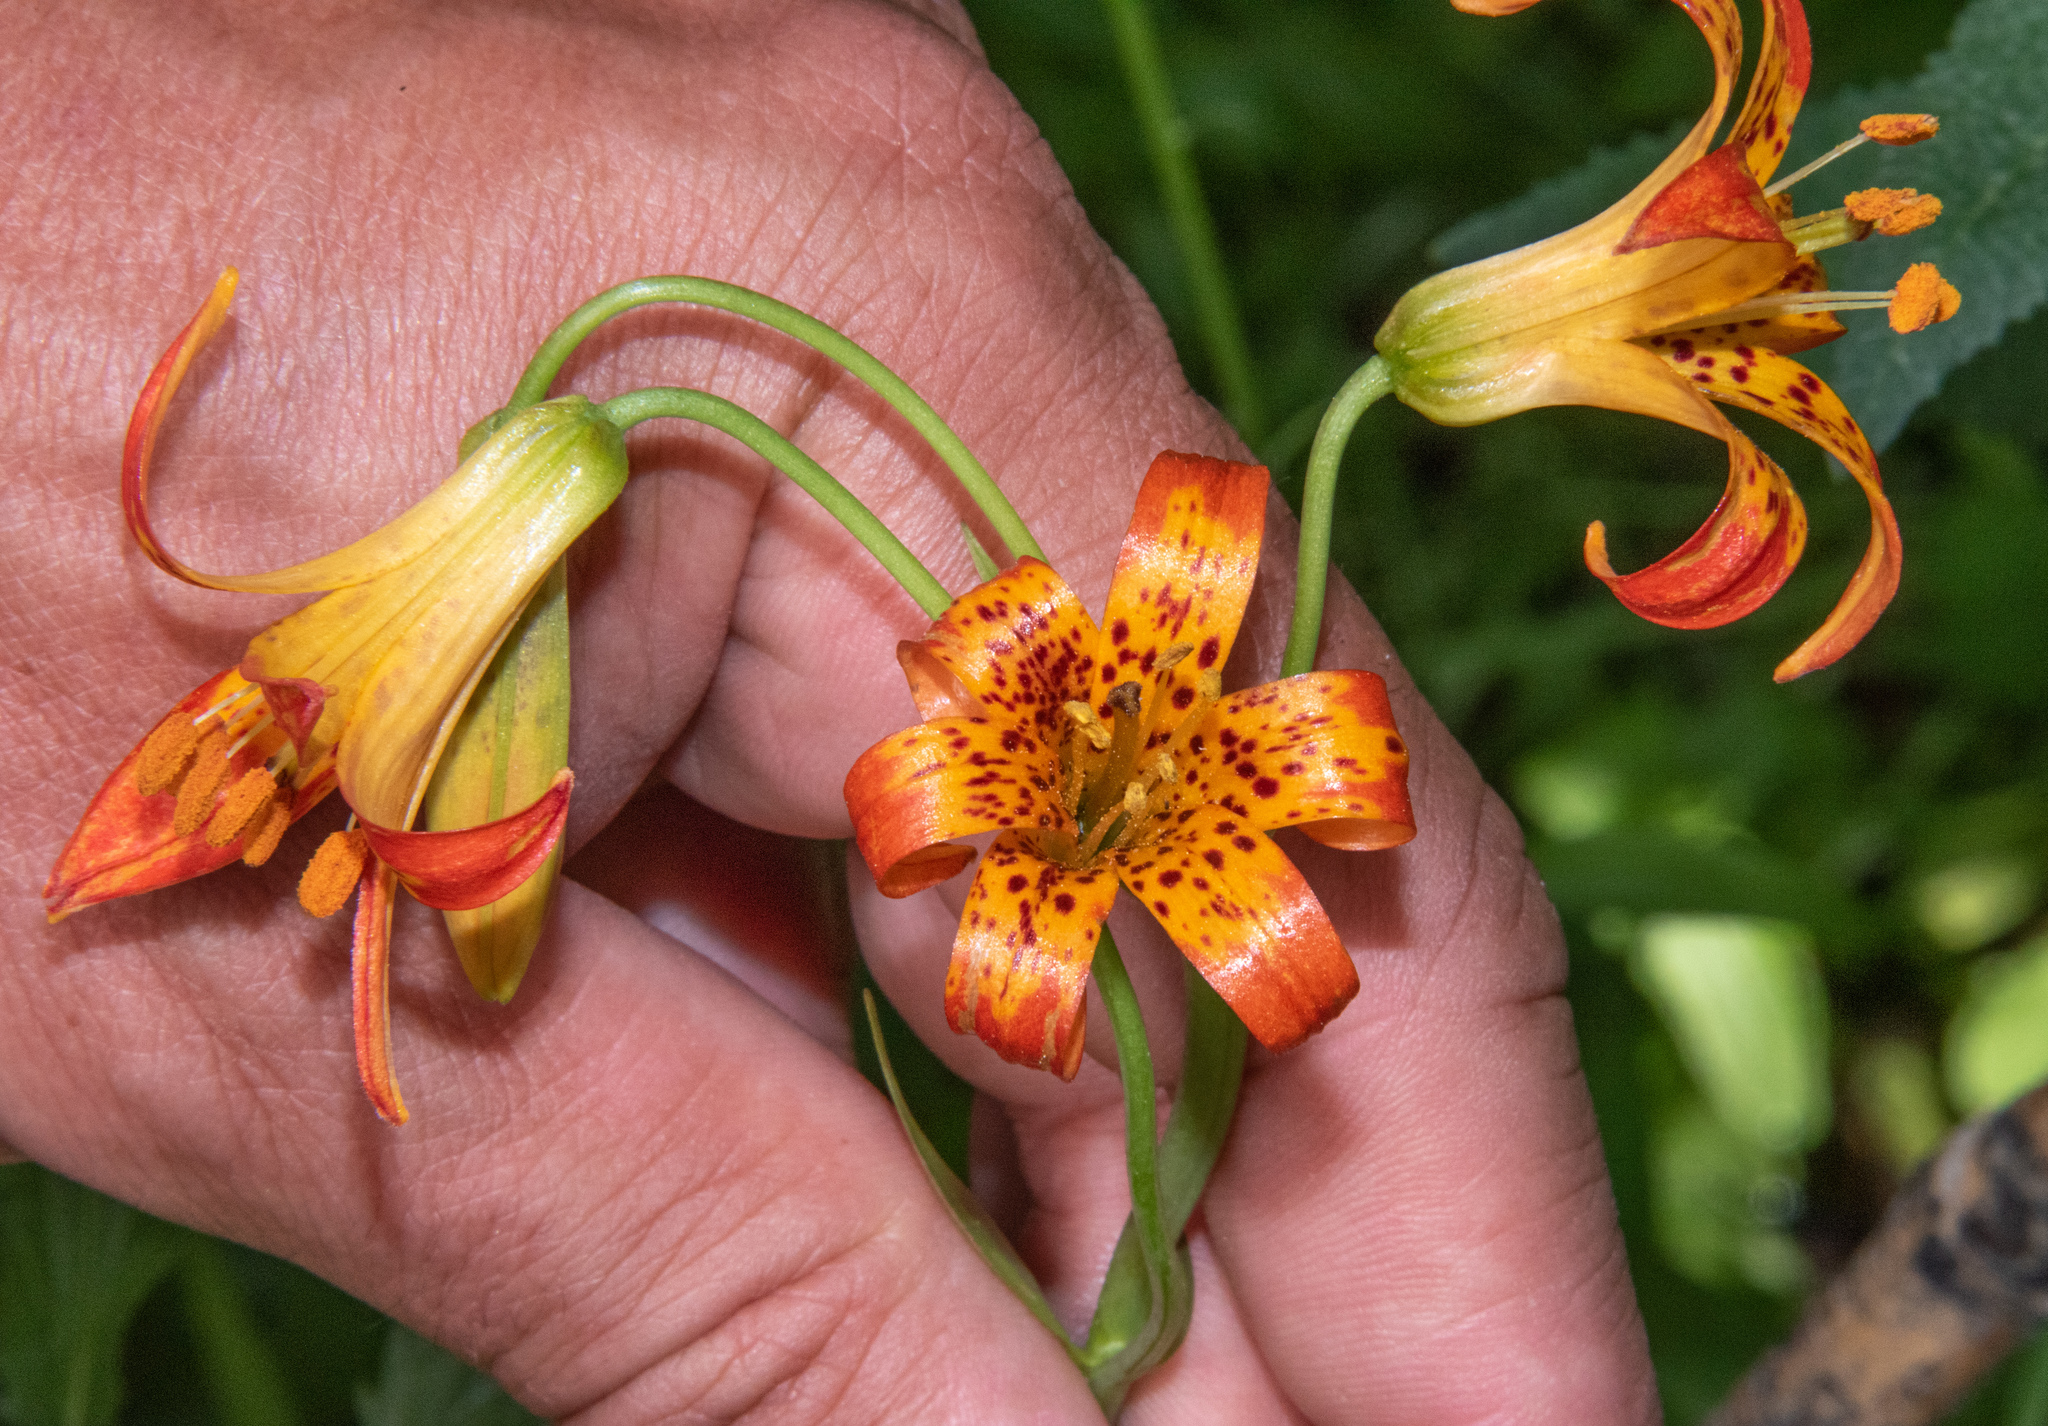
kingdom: Plantae
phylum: Tracheophyta
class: Liliopsida
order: Liliales
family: Liliaceae
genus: Lilium
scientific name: Lilium parvum
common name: Alpine lily
